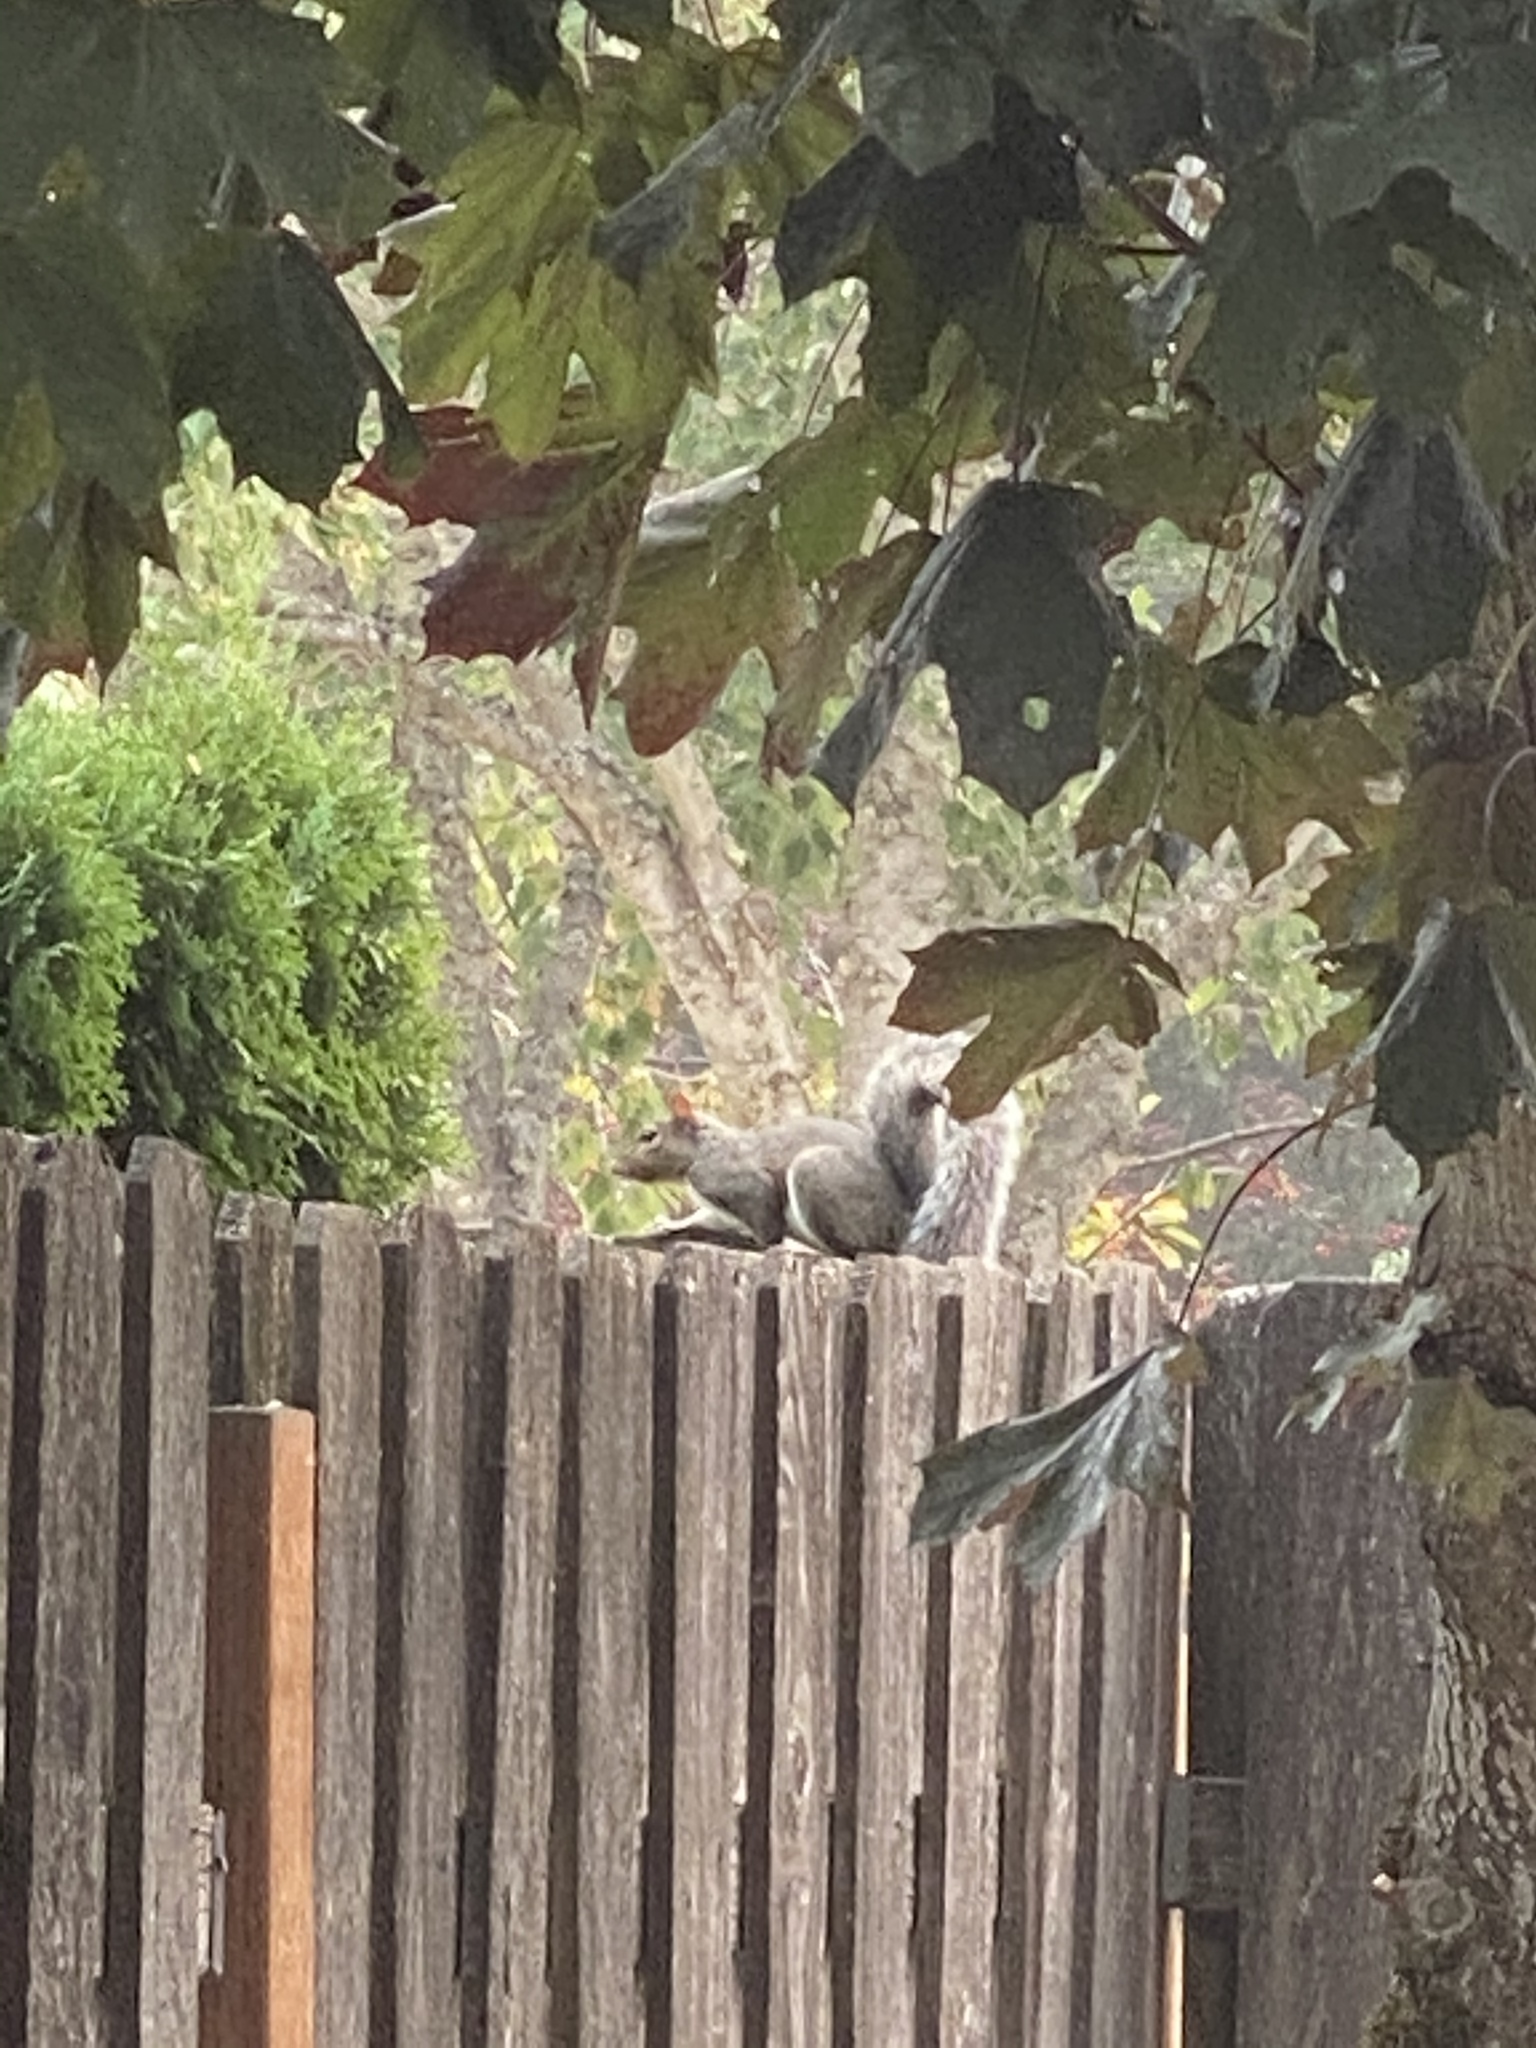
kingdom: Animalia
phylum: Chordata
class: Mammalia
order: Rodentia
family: Sciuridae
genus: Sciurus
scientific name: Sciurus carolinensis
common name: Eastern gray squirrel
